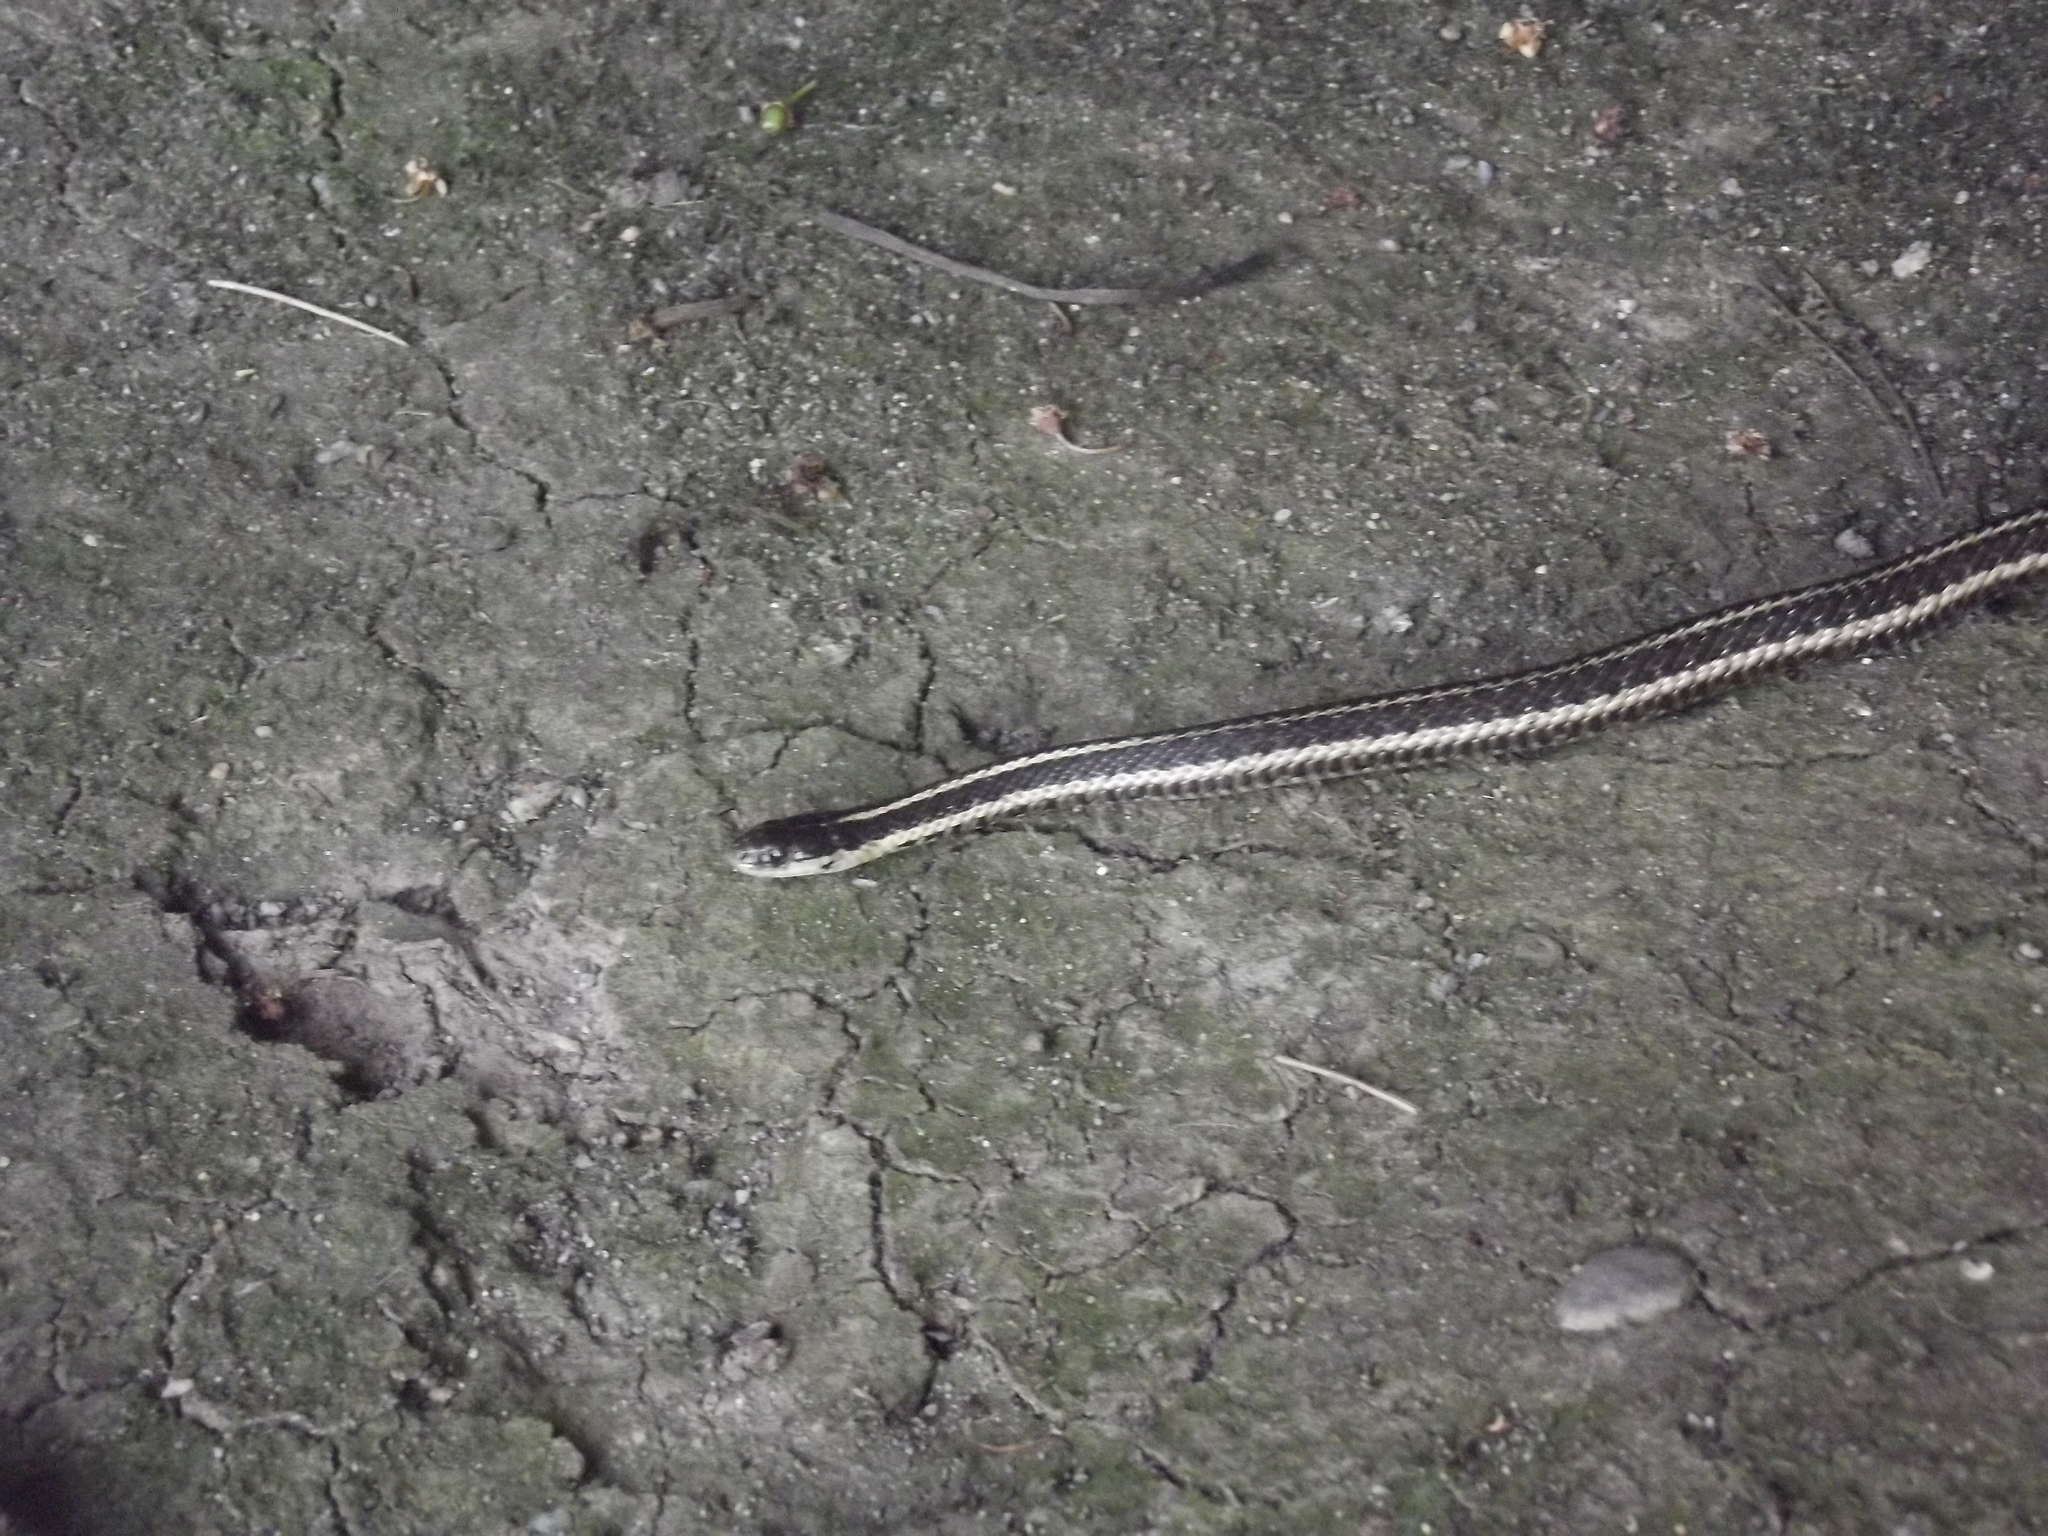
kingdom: Animalia
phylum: Chordata
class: Squamata
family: Colubridae
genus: Thamnophis
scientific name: Thamnophis ordinoides
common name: Northwestern garter snake
